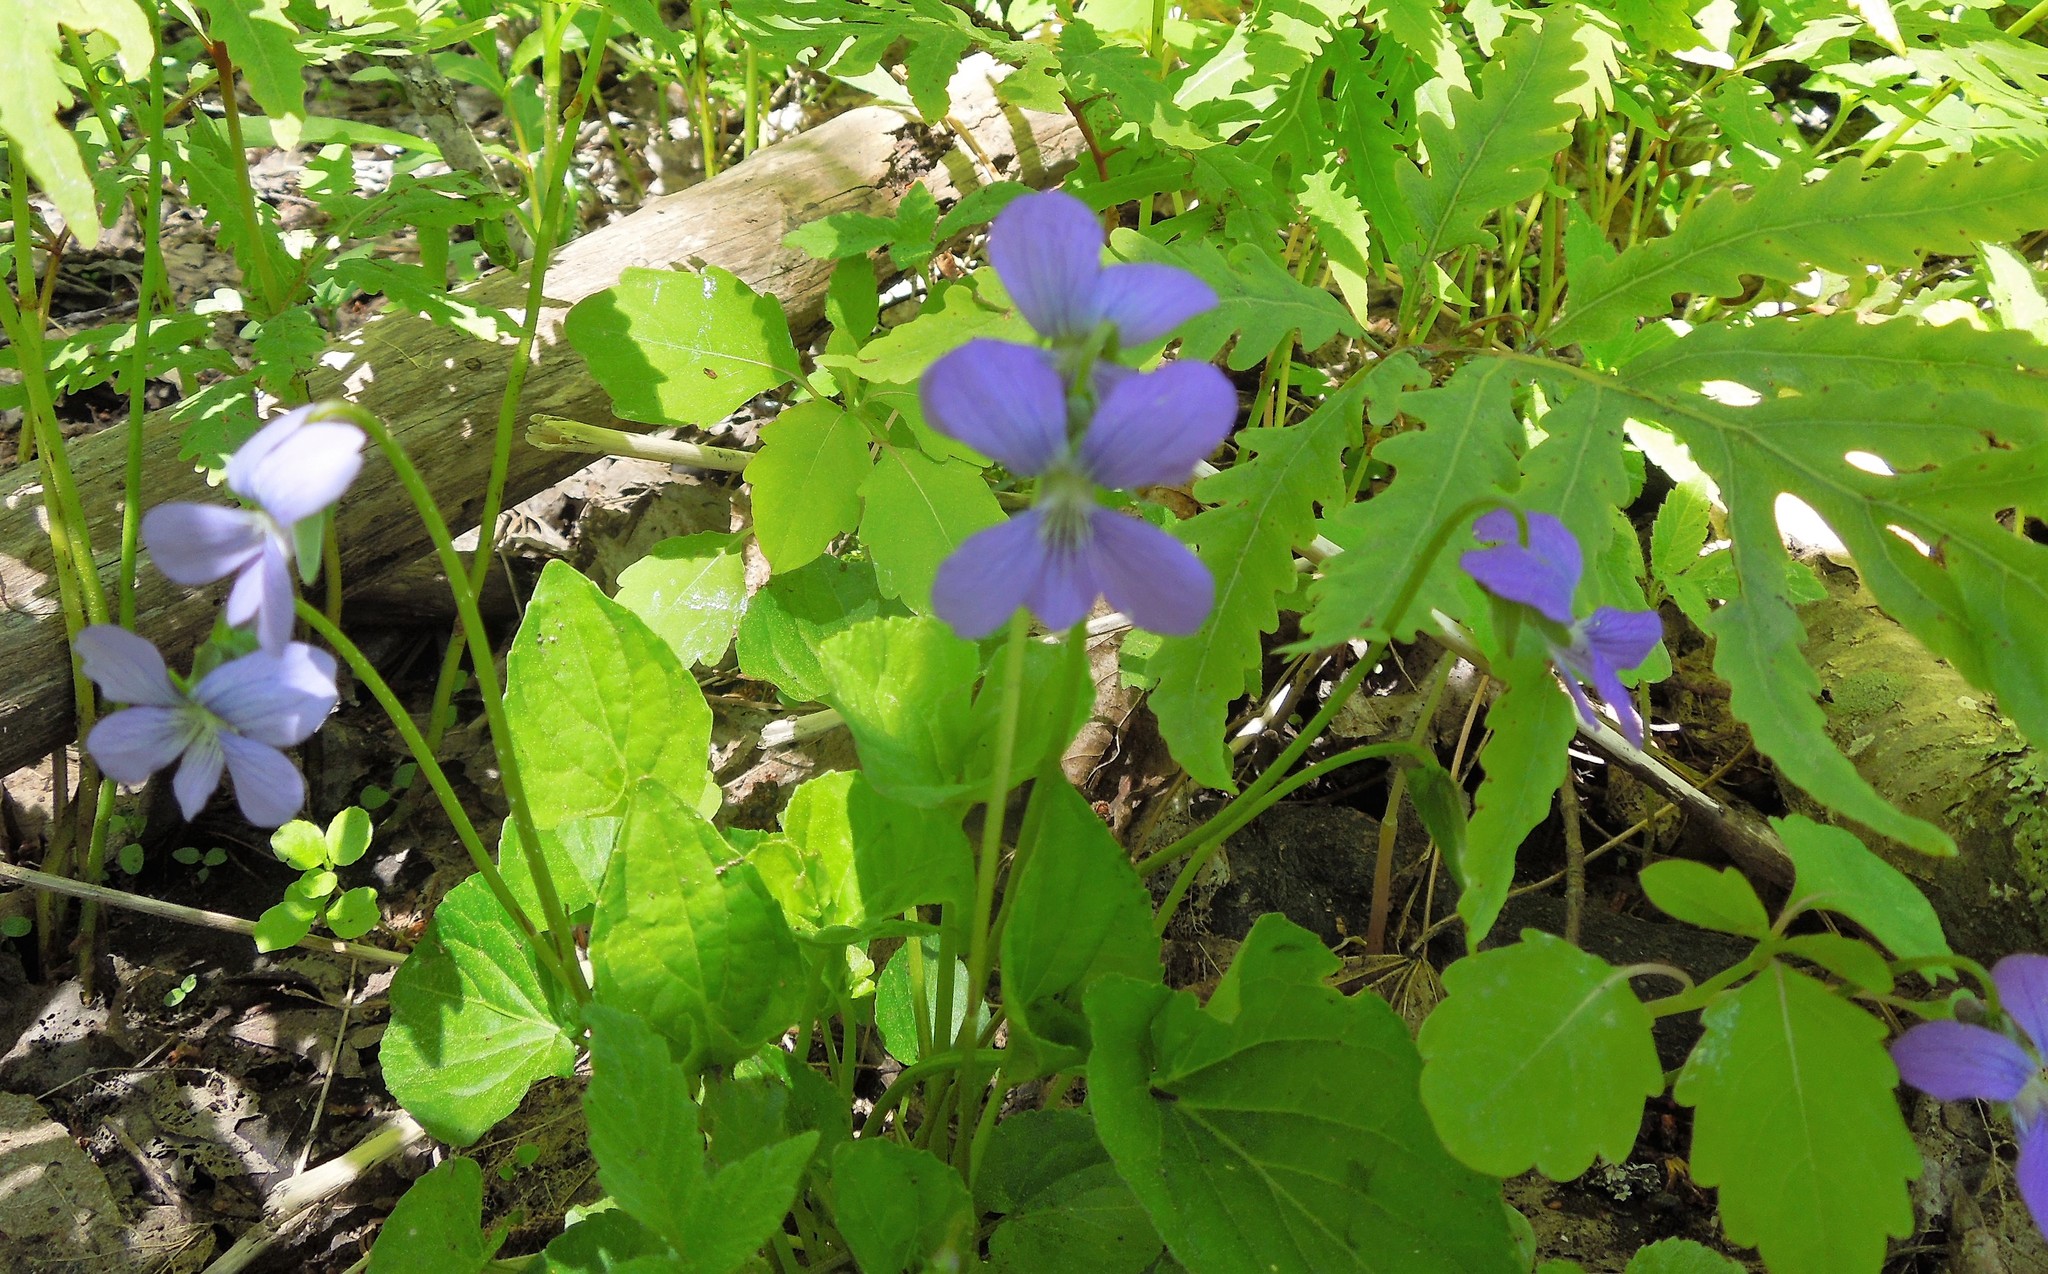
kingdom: Plantae
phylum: Tracheophyta
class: Magnoliopsida
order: Malpighiales
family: Violaceae
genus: Viola
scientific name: Viola cucullata
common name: Marsh blue violet
